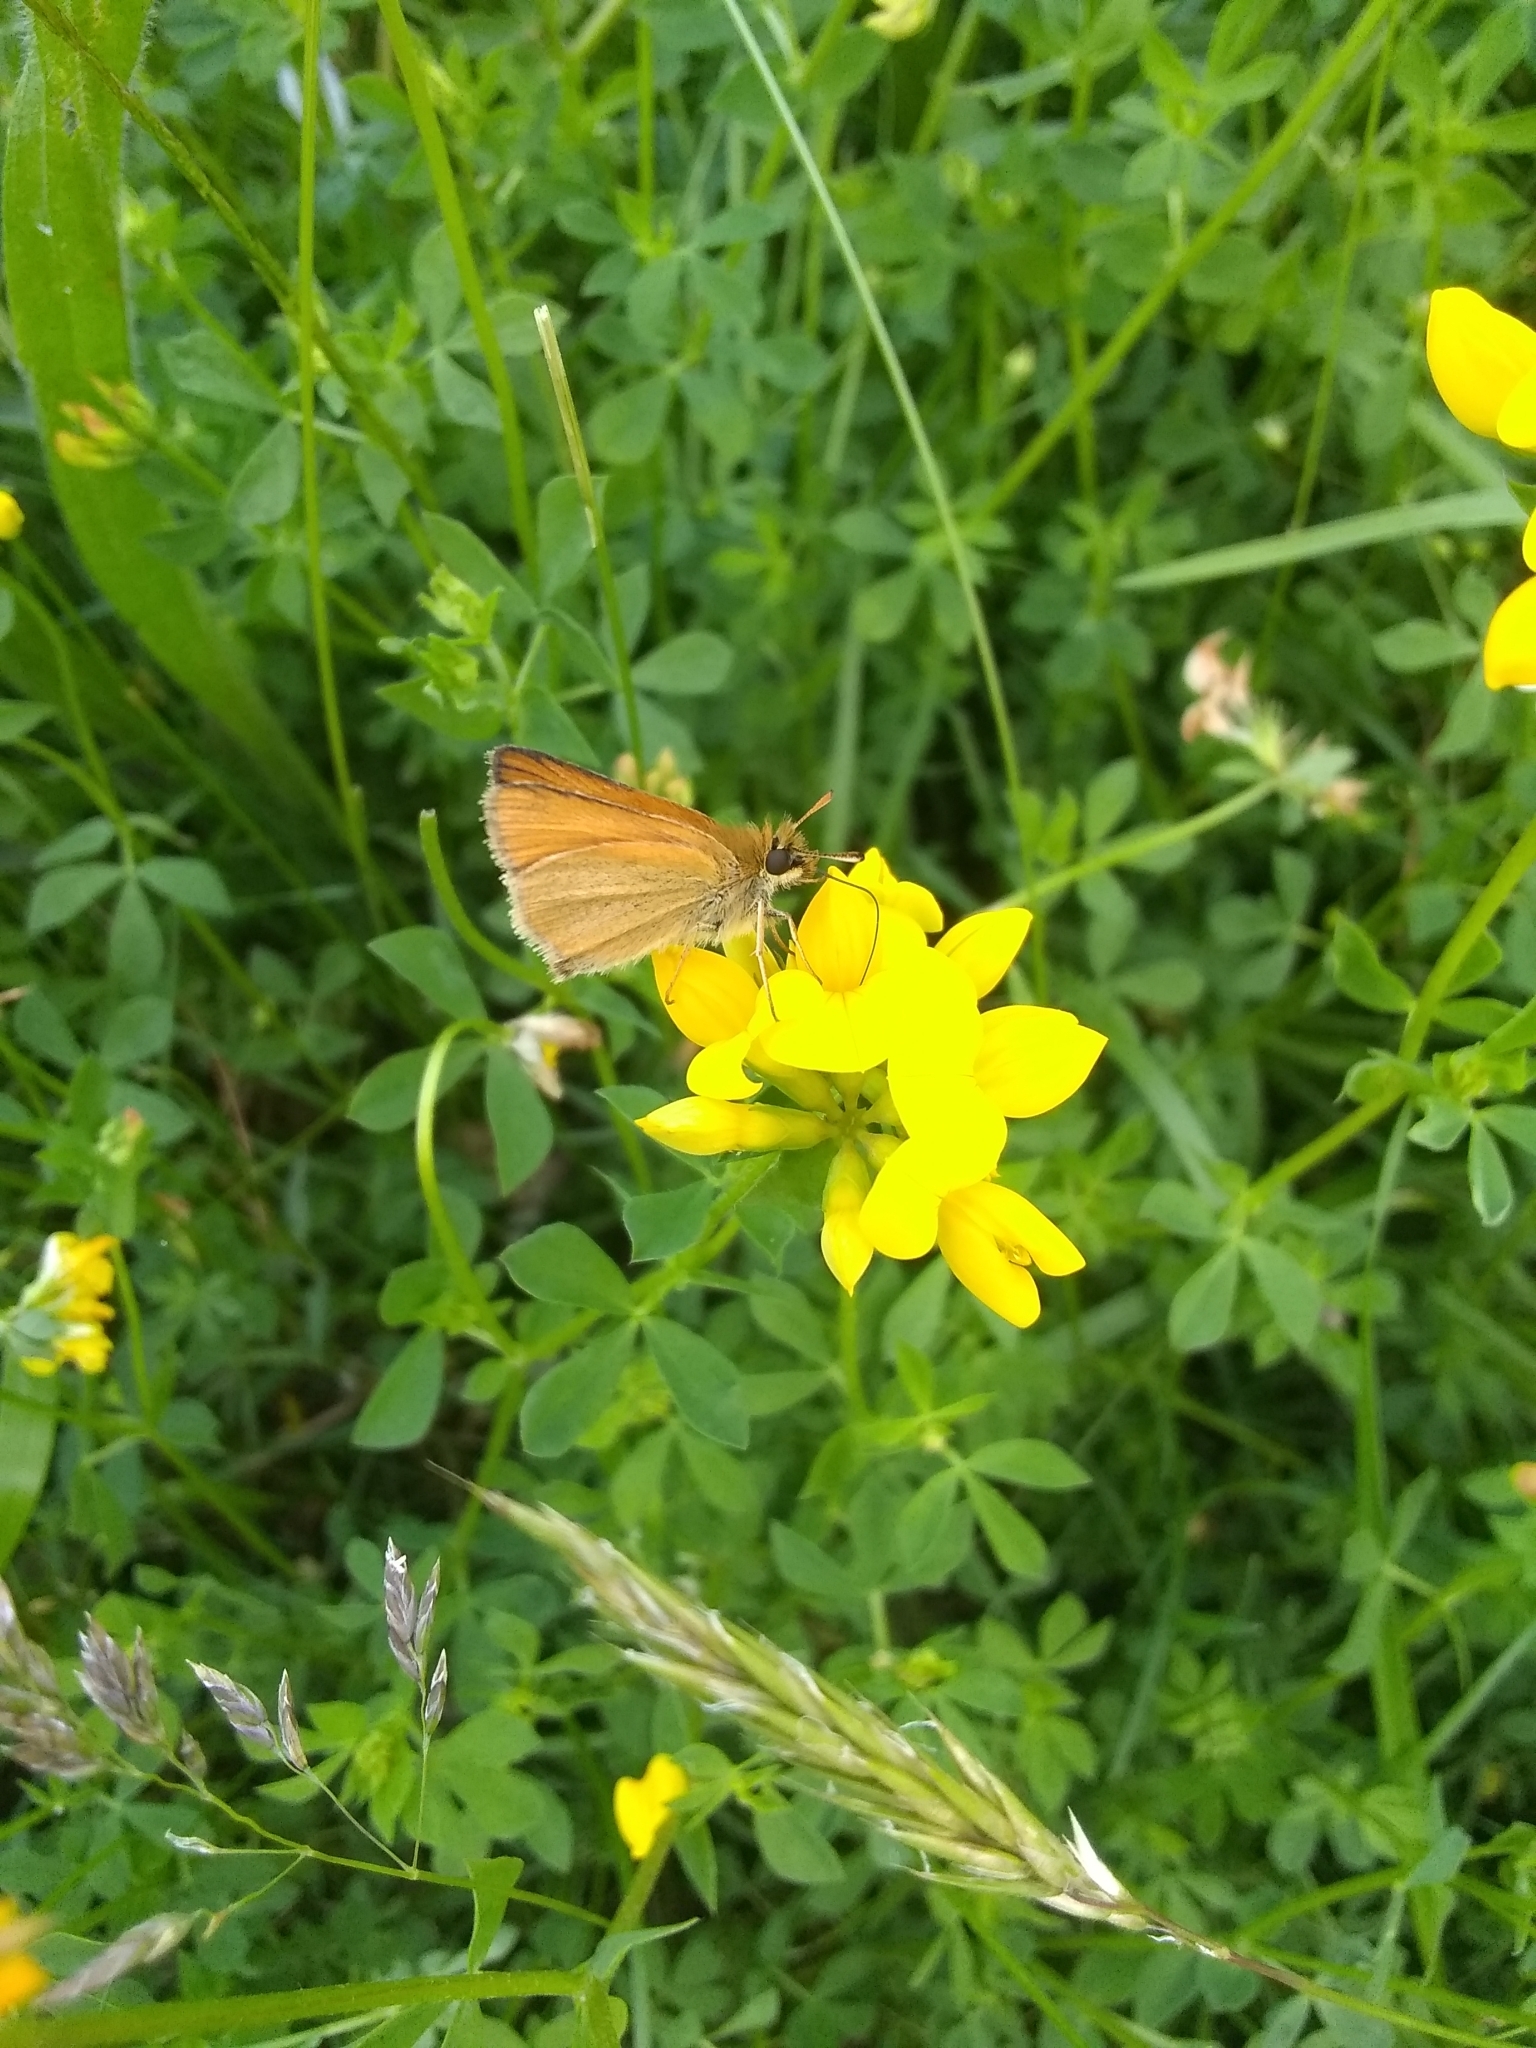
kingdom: Plantae
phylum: Tracheophyta
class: Magnoliopsida
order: Fabales
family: Fabaceae
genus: Lotus
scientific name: Lotus corniculatus
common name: Common bird's-foot-trefoil
